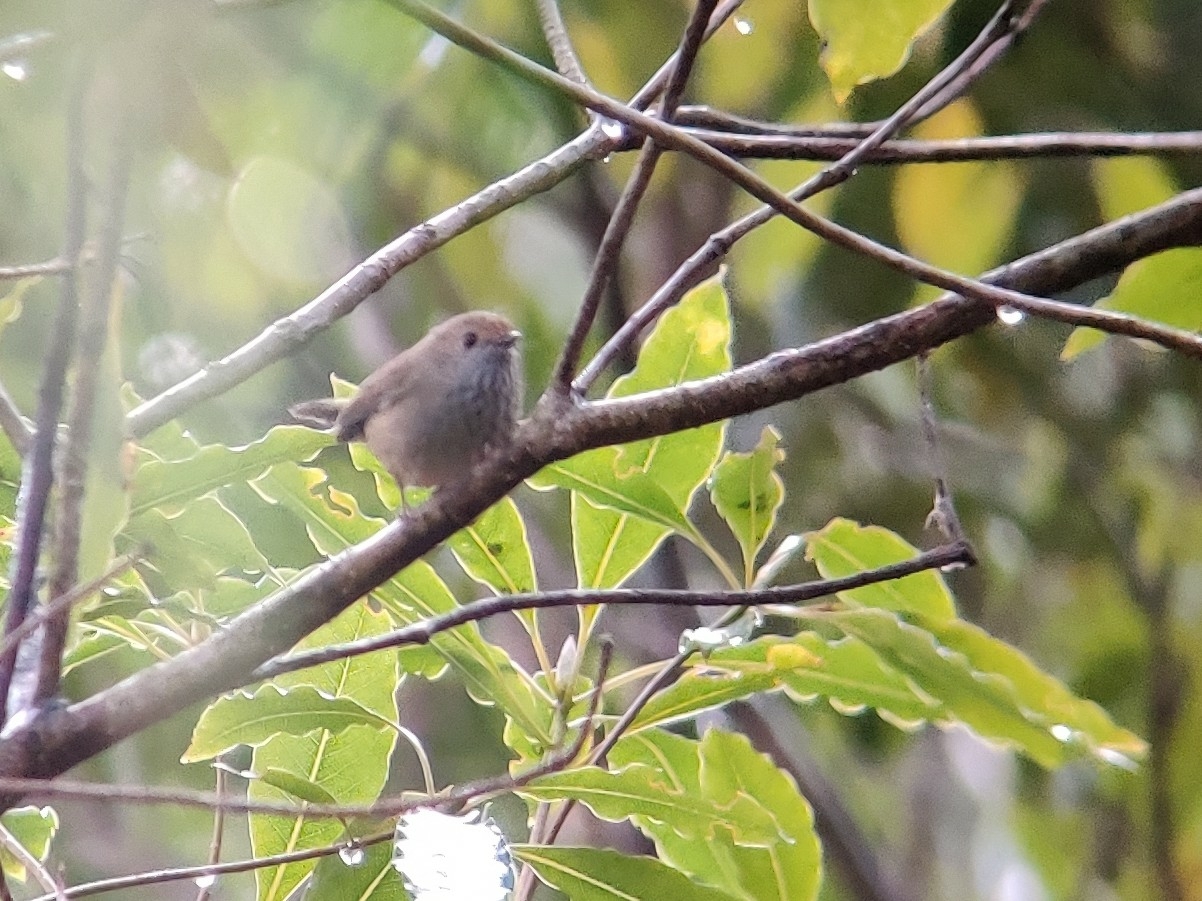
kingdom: Animalia
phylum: Chordata
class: Aves
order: Passeriformes
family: Acanthizidae
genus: Acanthiza
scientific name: Acanthiza pusilla
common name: Brown thornbill
